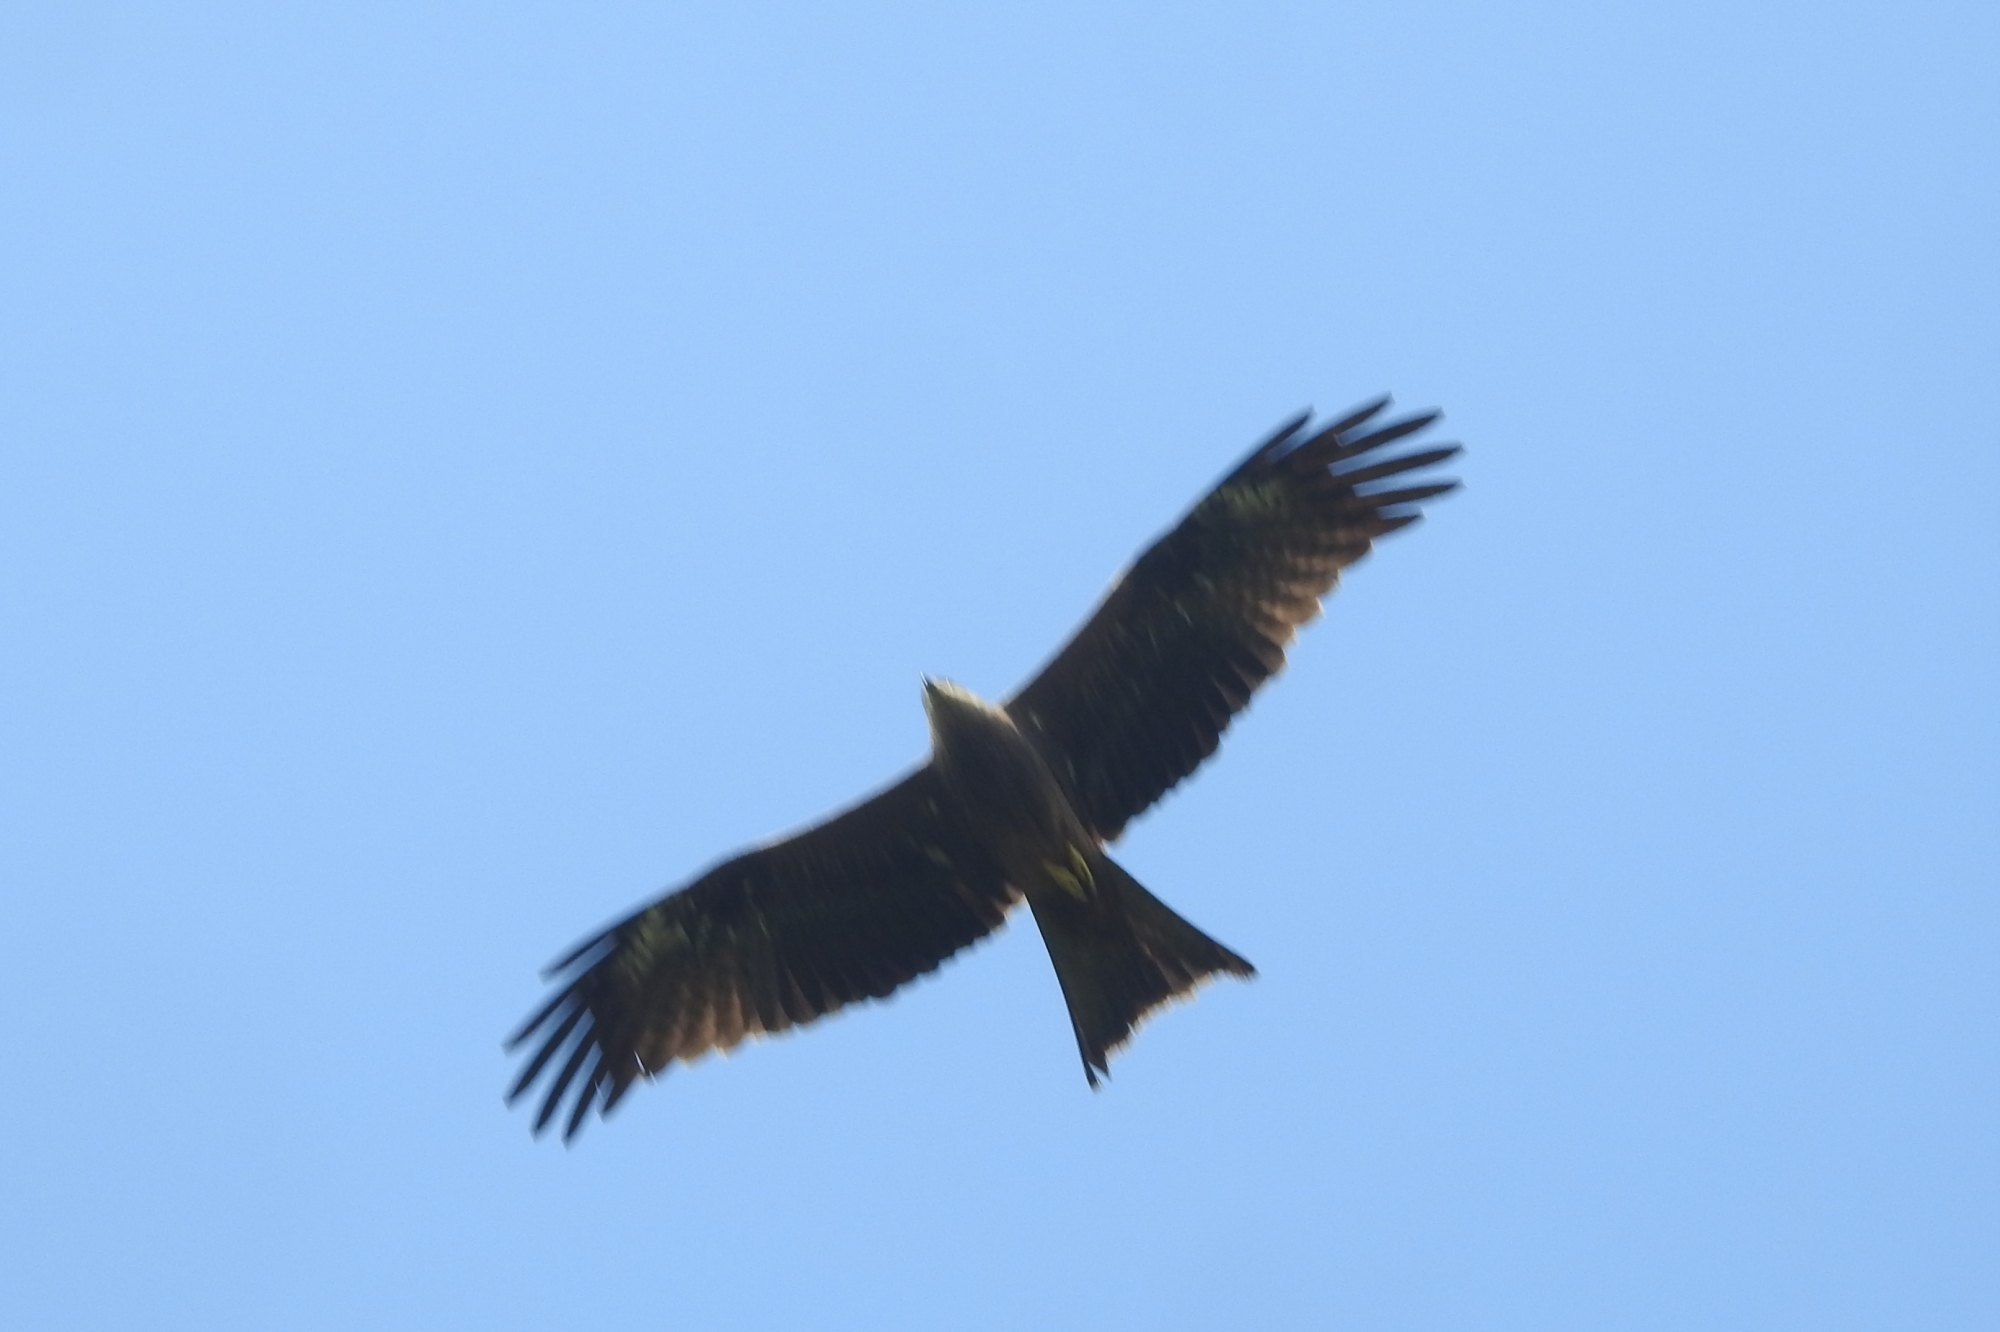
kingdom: Animalia
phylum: Chordata
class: Aves
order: Accipitriformes
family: Accipitridae
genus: Milvus
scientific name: Milvus migrans
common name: Black kite
